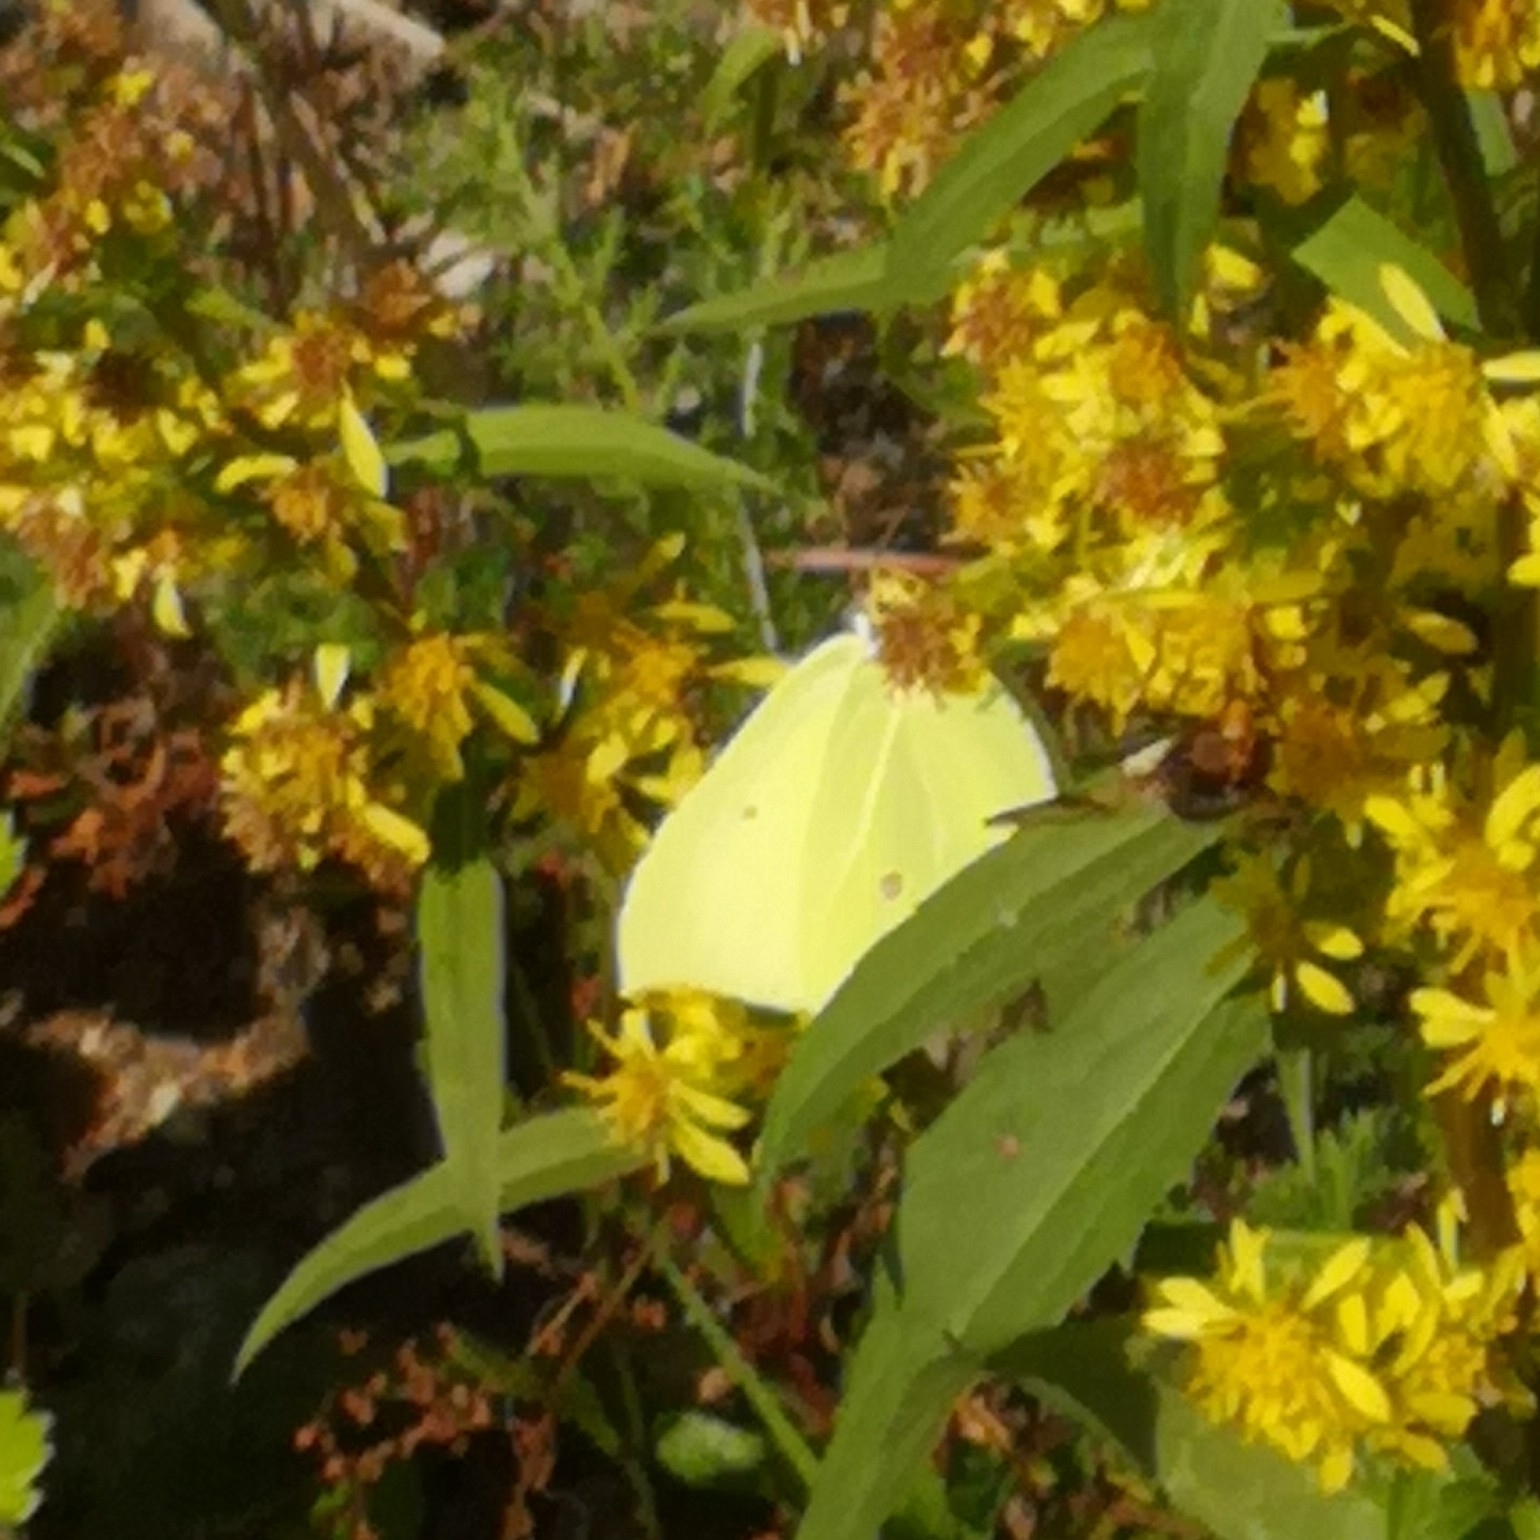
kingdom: Animalia
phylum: Arthropoda
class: Insecta
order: Lepidoptera
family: Pieridae
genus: Gonepteryx
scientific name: Gonepteryx rhamni
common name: Brimstone
